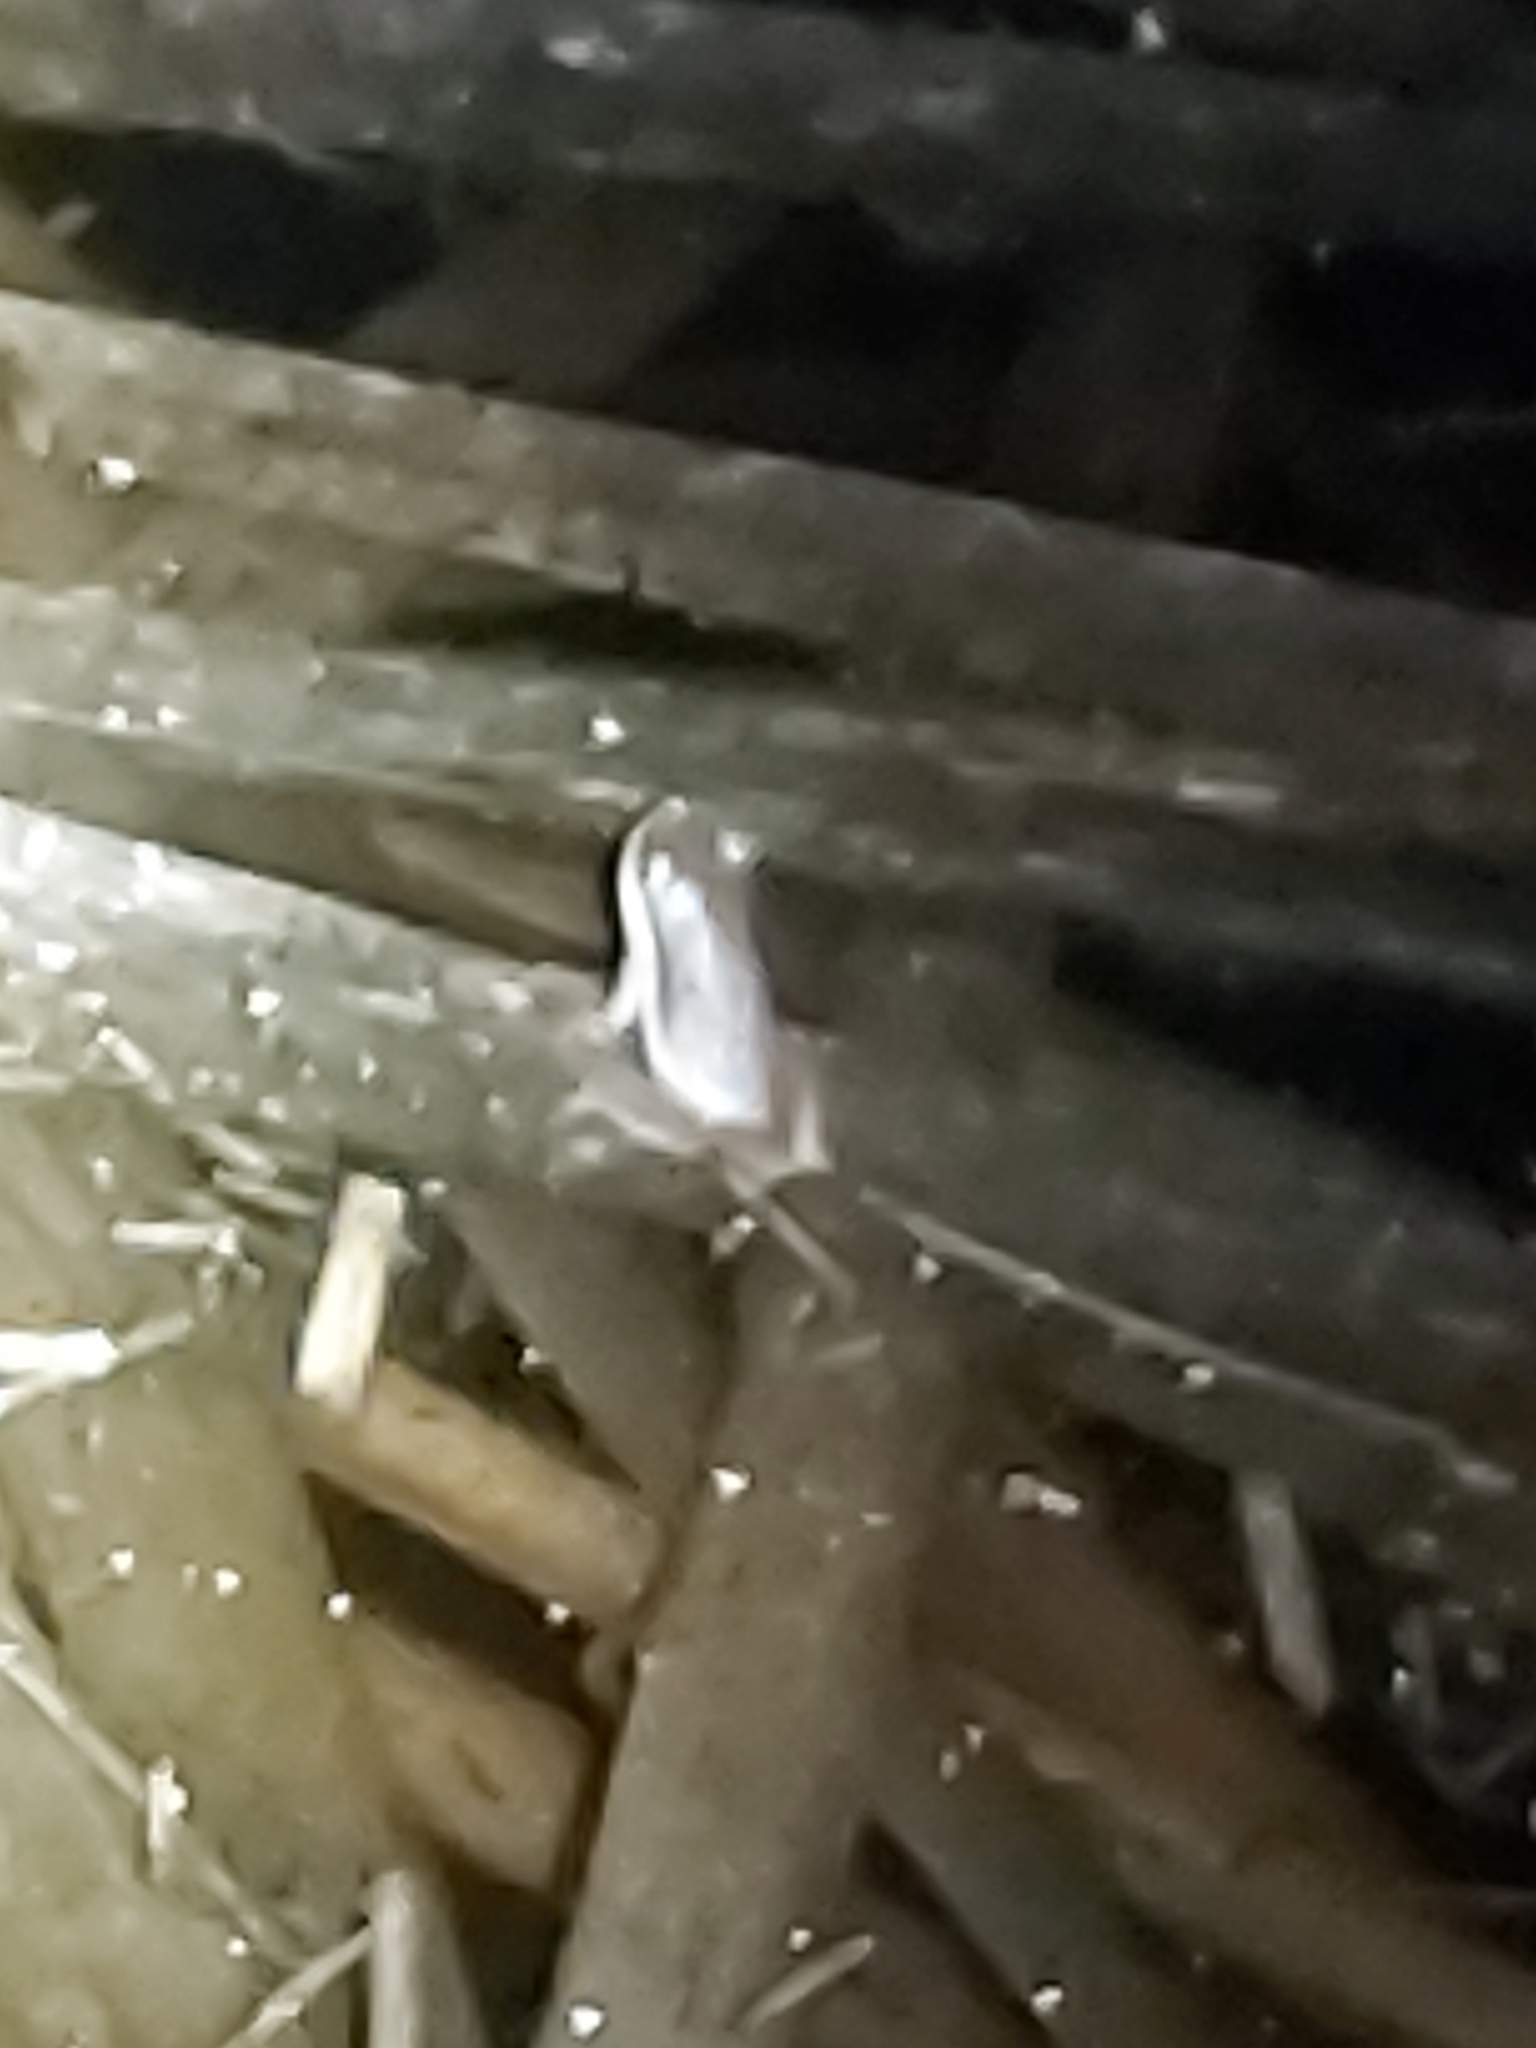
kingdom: Animalia
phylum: Chordata
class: Amphibia
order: Anura
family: Pelodryadidae
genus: Litoria
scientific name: Litoria fallax
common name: Eastern dwarf treefrog
